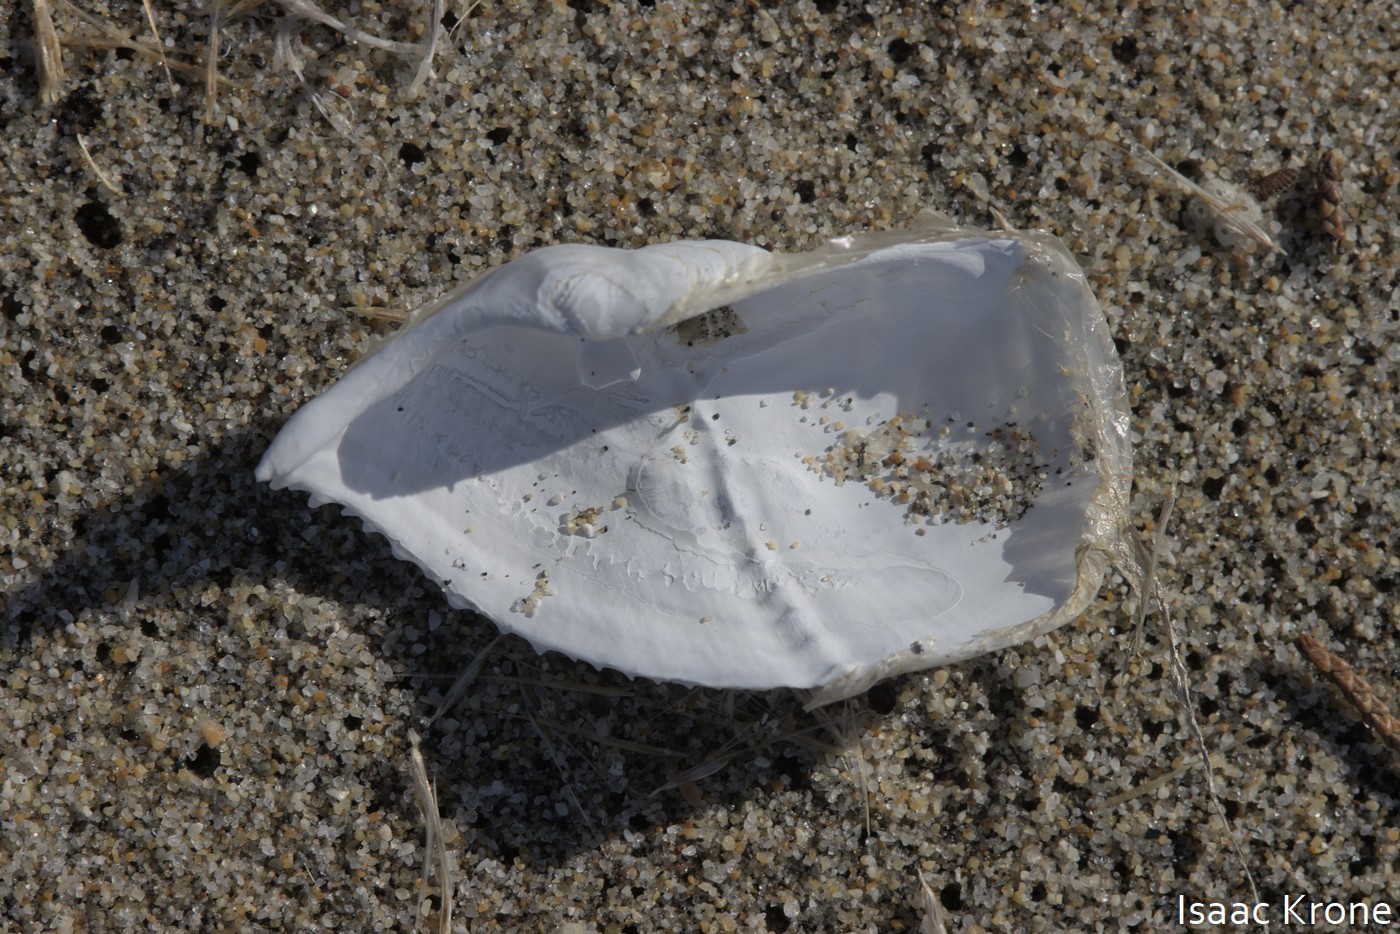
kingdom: Animalia
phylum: Mollusca
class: Bivalvia
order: Myida
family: Pholadidae
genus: Zirfaea
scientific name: Zirfaea pilsbryi
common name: Rough piddock
